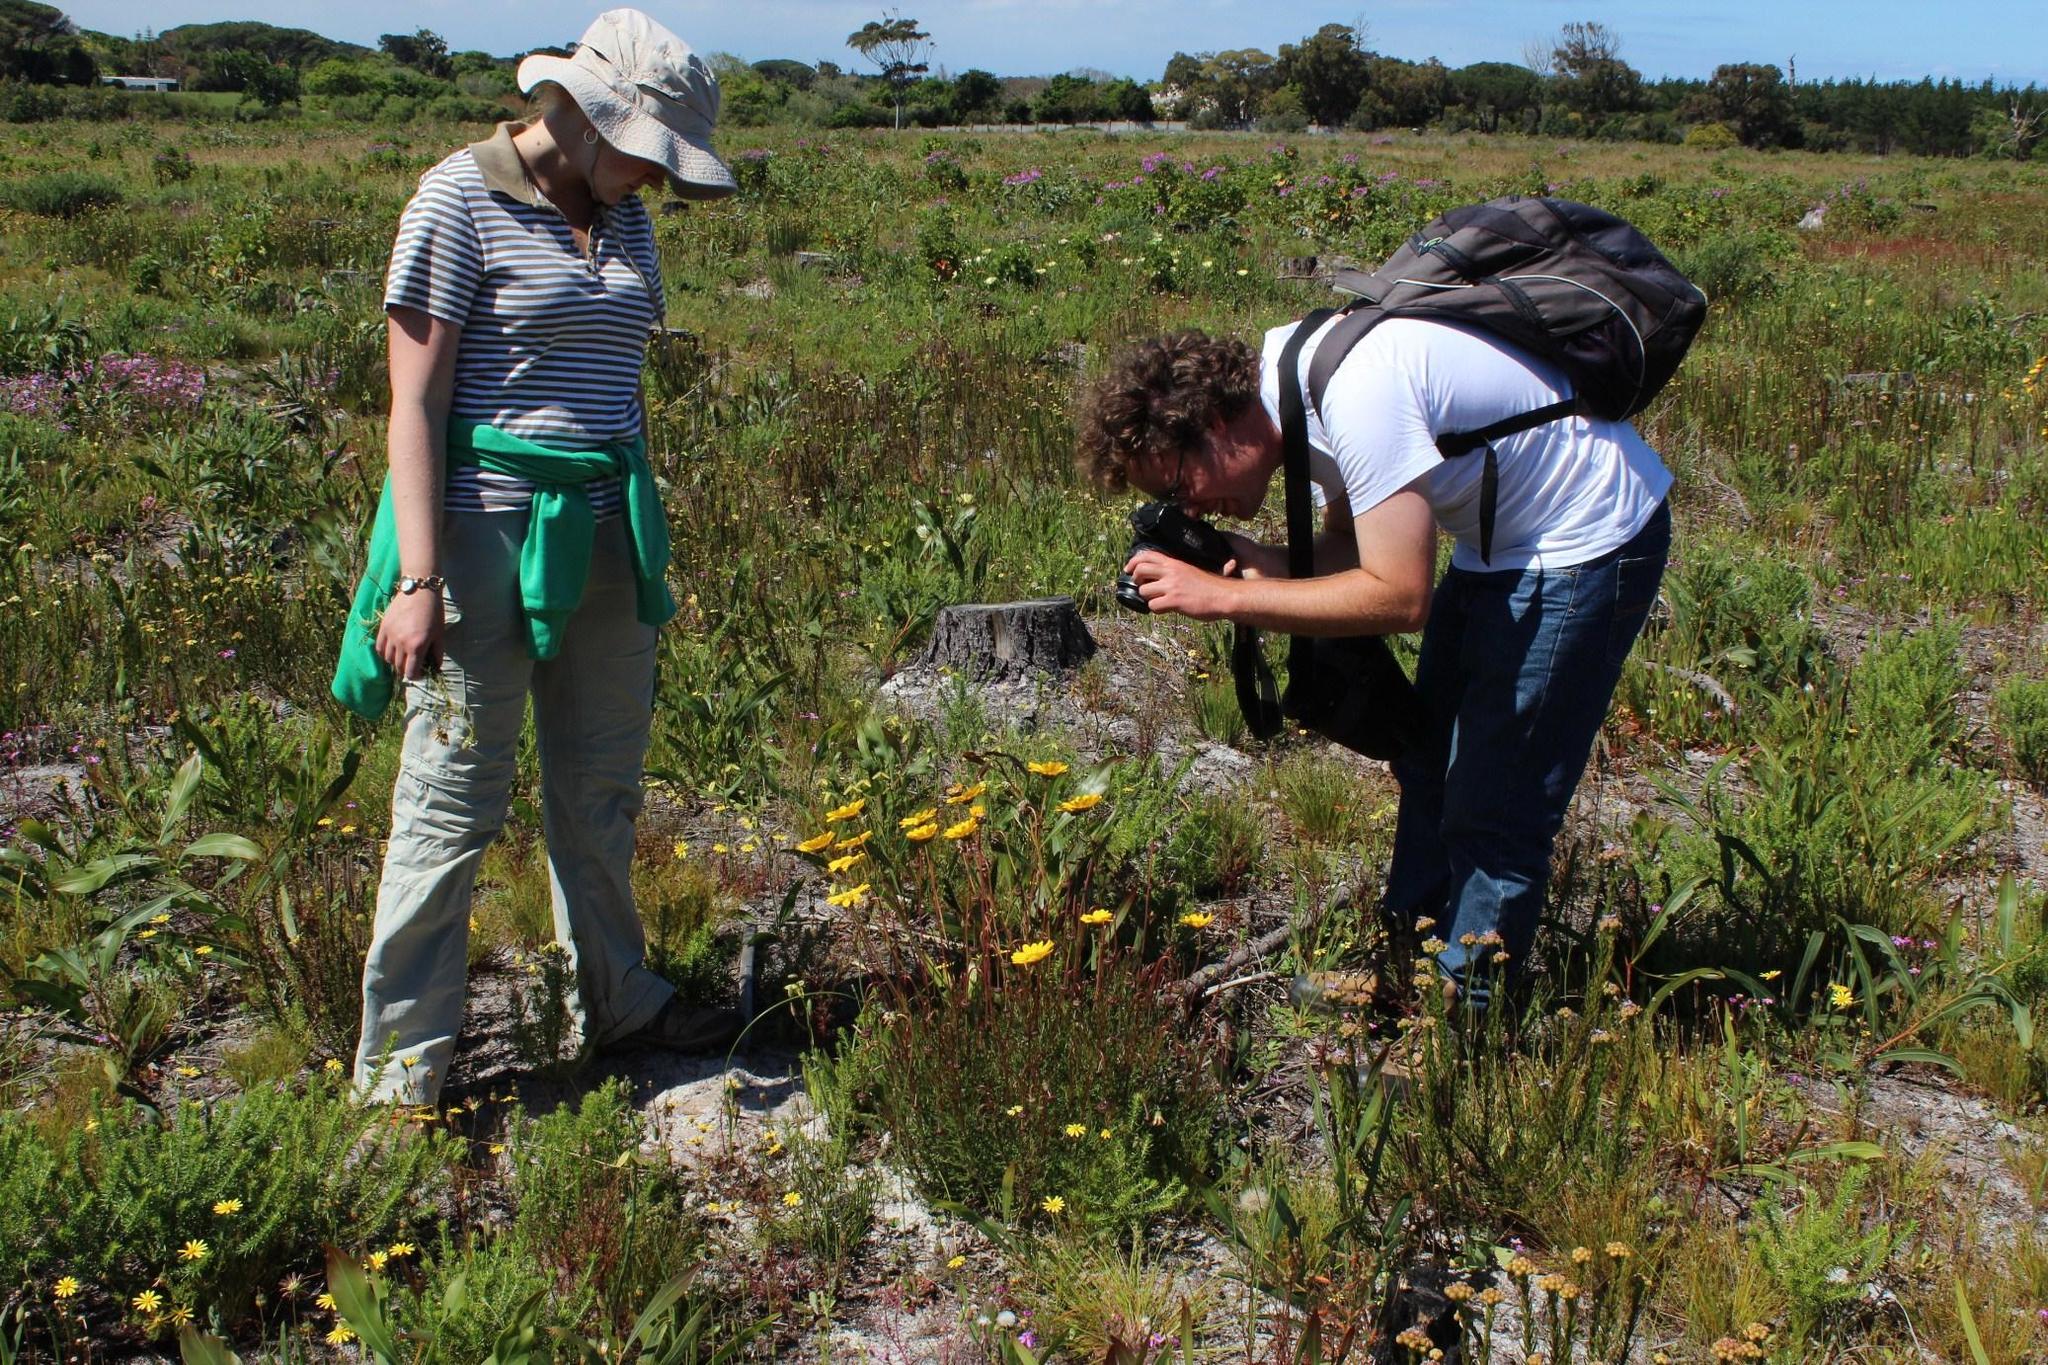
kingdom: Plantae
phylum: Tracheophyta
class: Magnoliopsida
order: Asterales
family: Asteraceae
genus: Ursinia
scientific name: Ursinia paleacea
